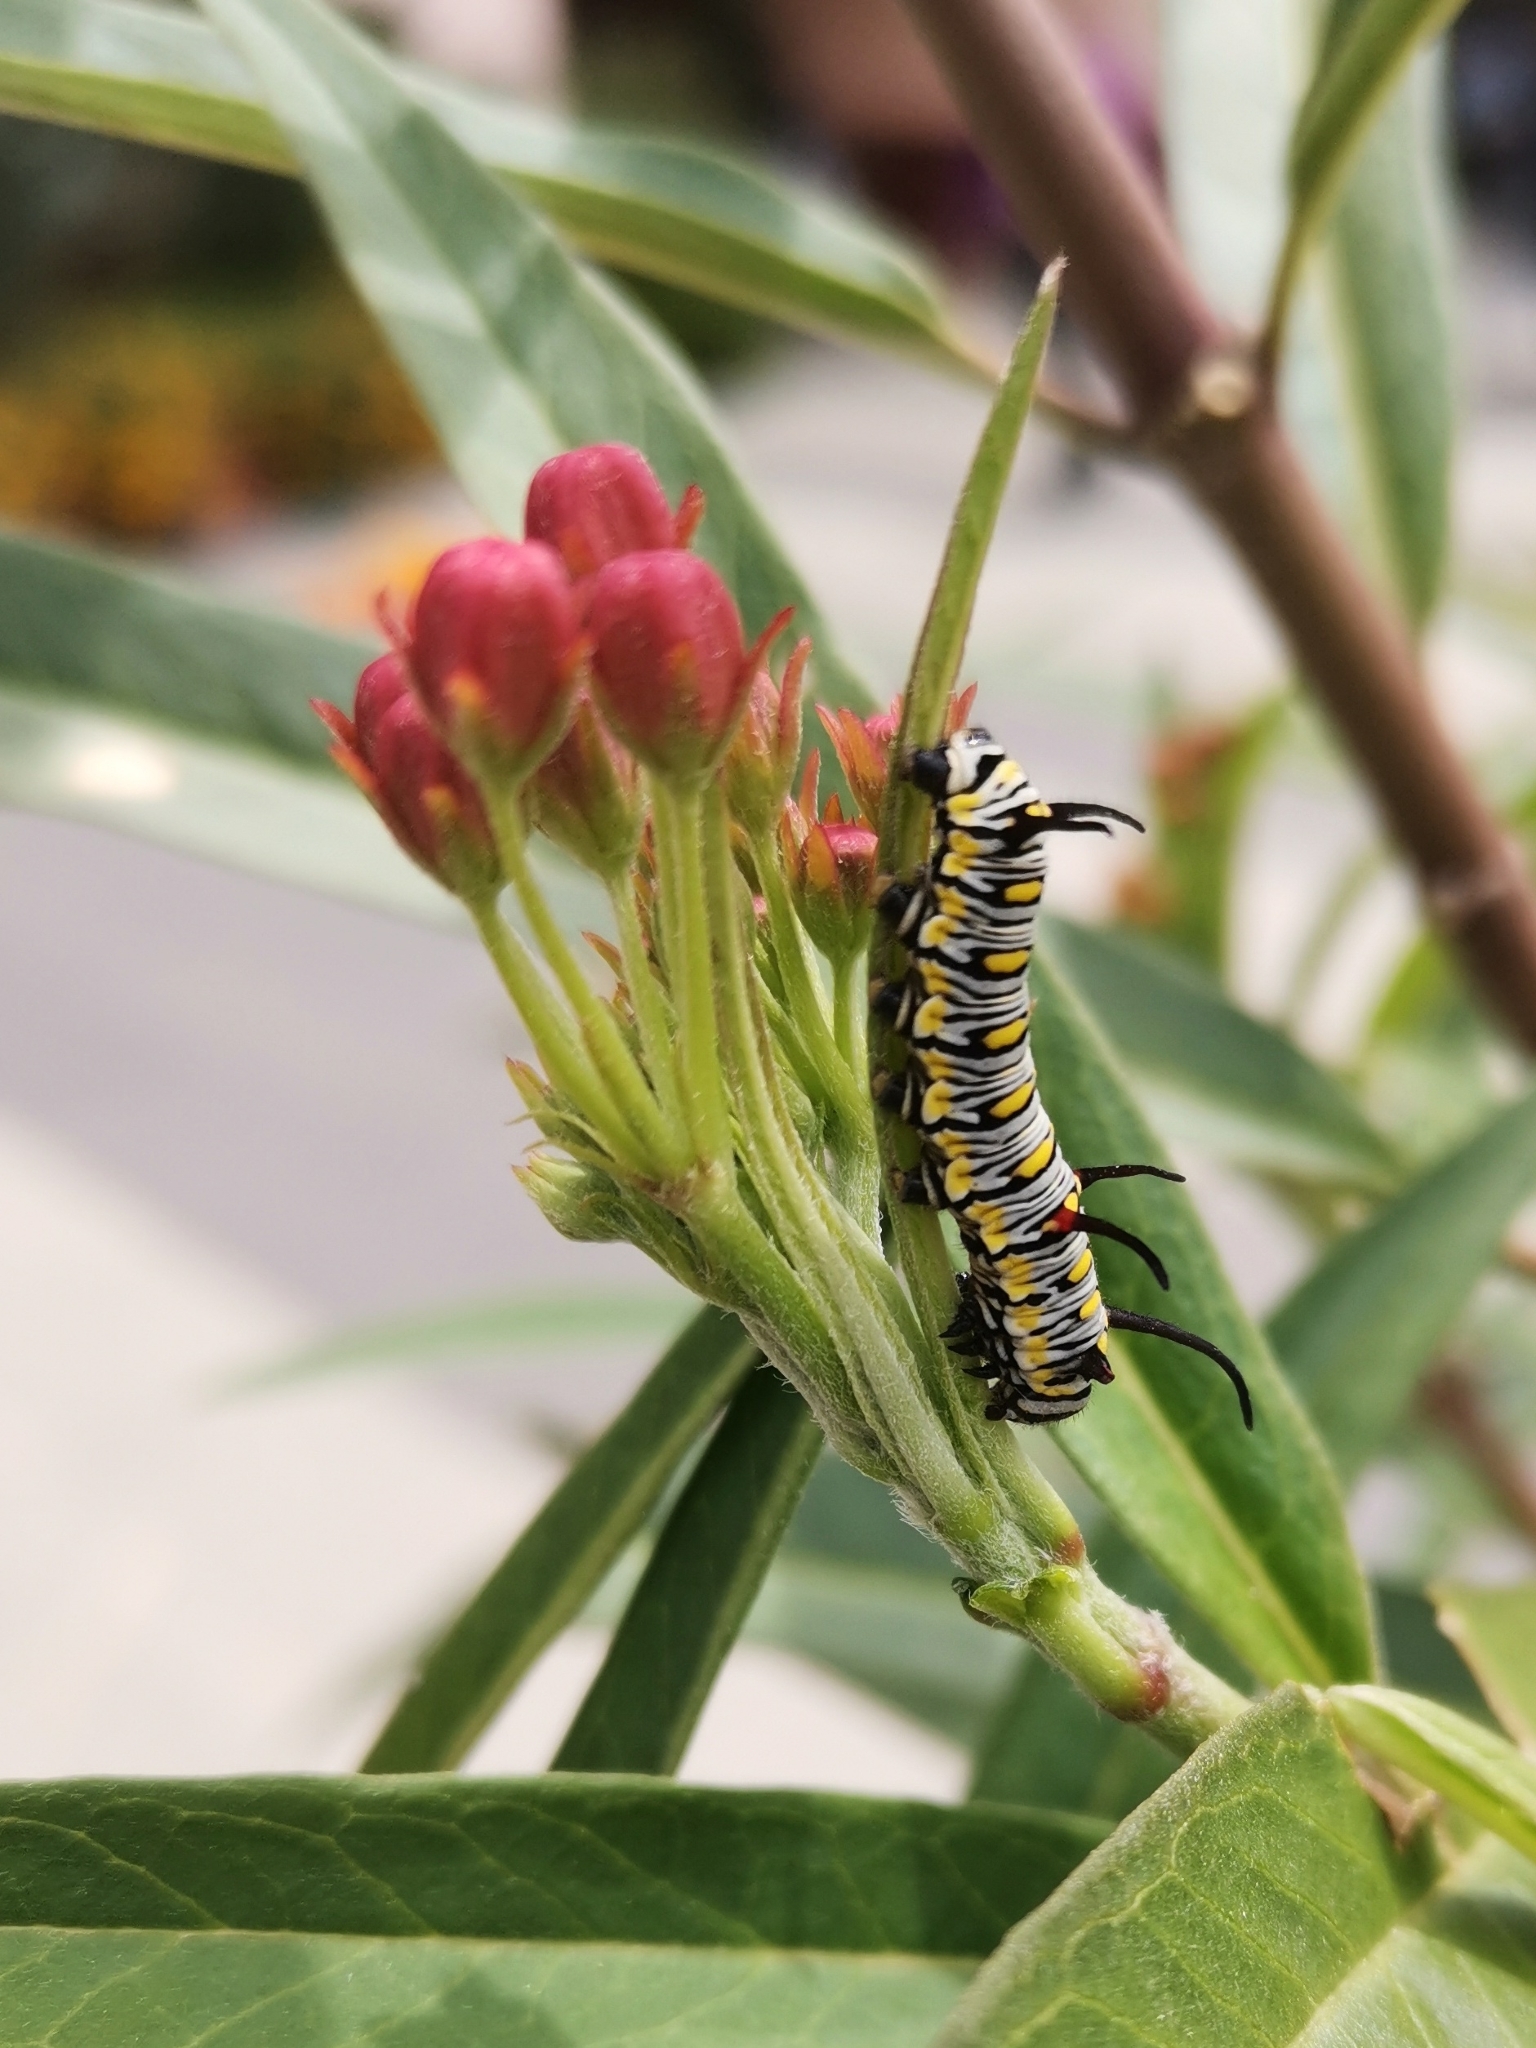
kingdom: Animalia
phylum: Arthropoda
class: Insecta
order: Lepidoptera
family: Nymphalidae
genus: Danaus
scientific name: Danaus chrysippus
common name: Plain tiger
